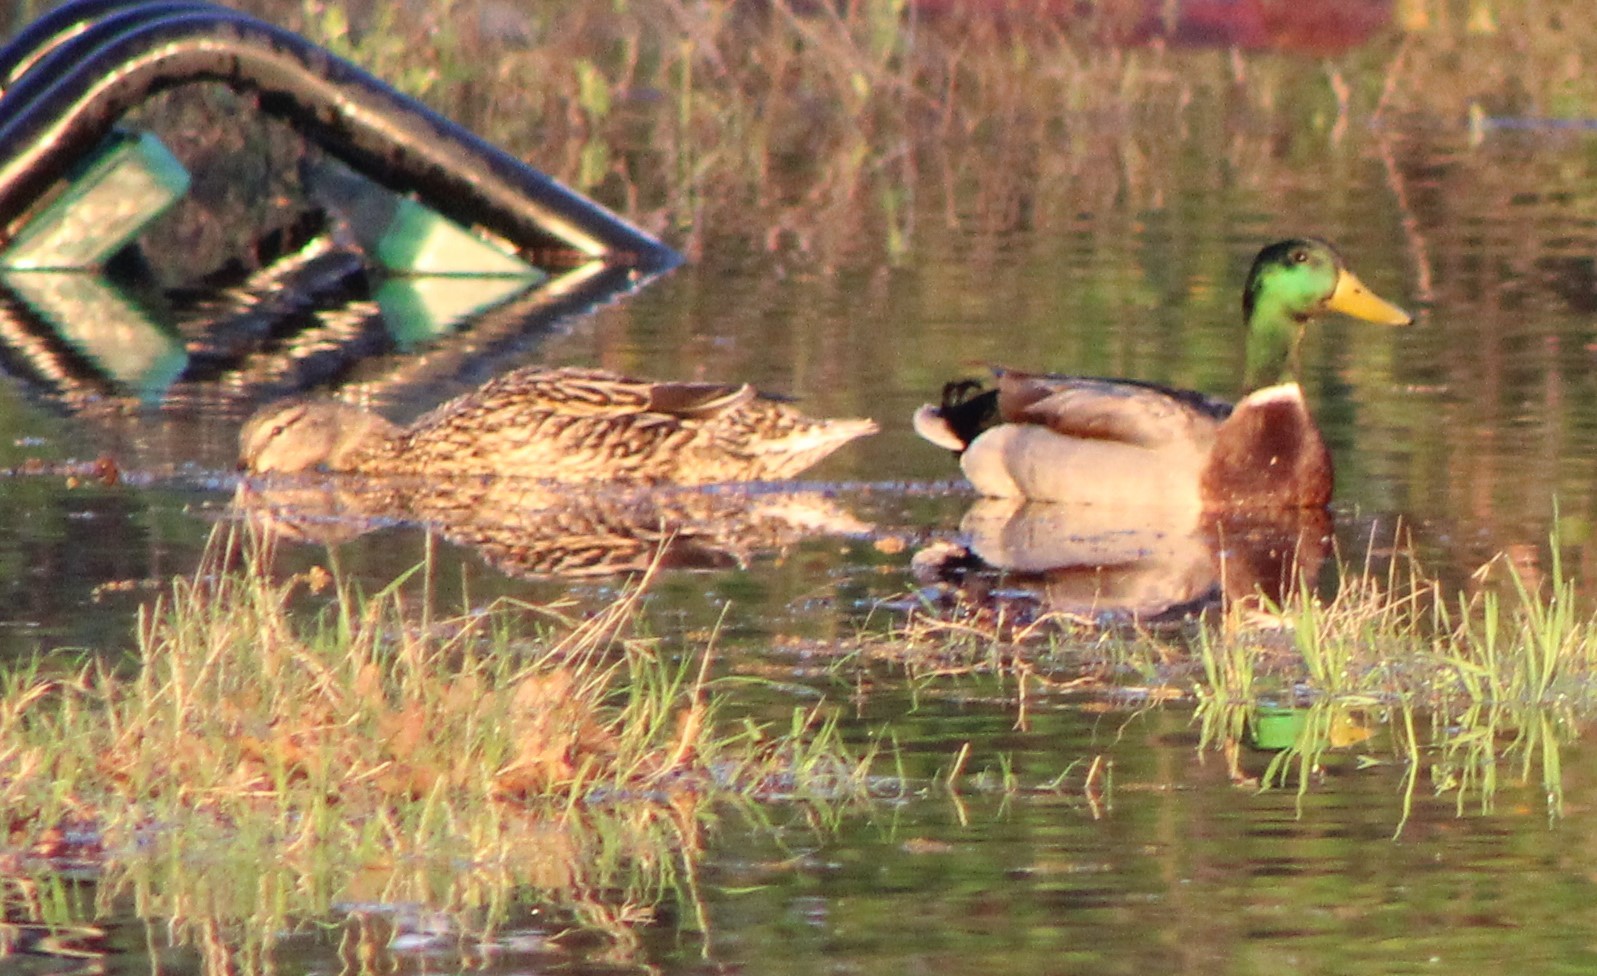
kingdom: Animalia
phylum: Chordata
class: Aves
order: Anseriformes
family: Anatidae
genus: Anas
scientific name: Anas platyrhynchos
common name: Mallard
